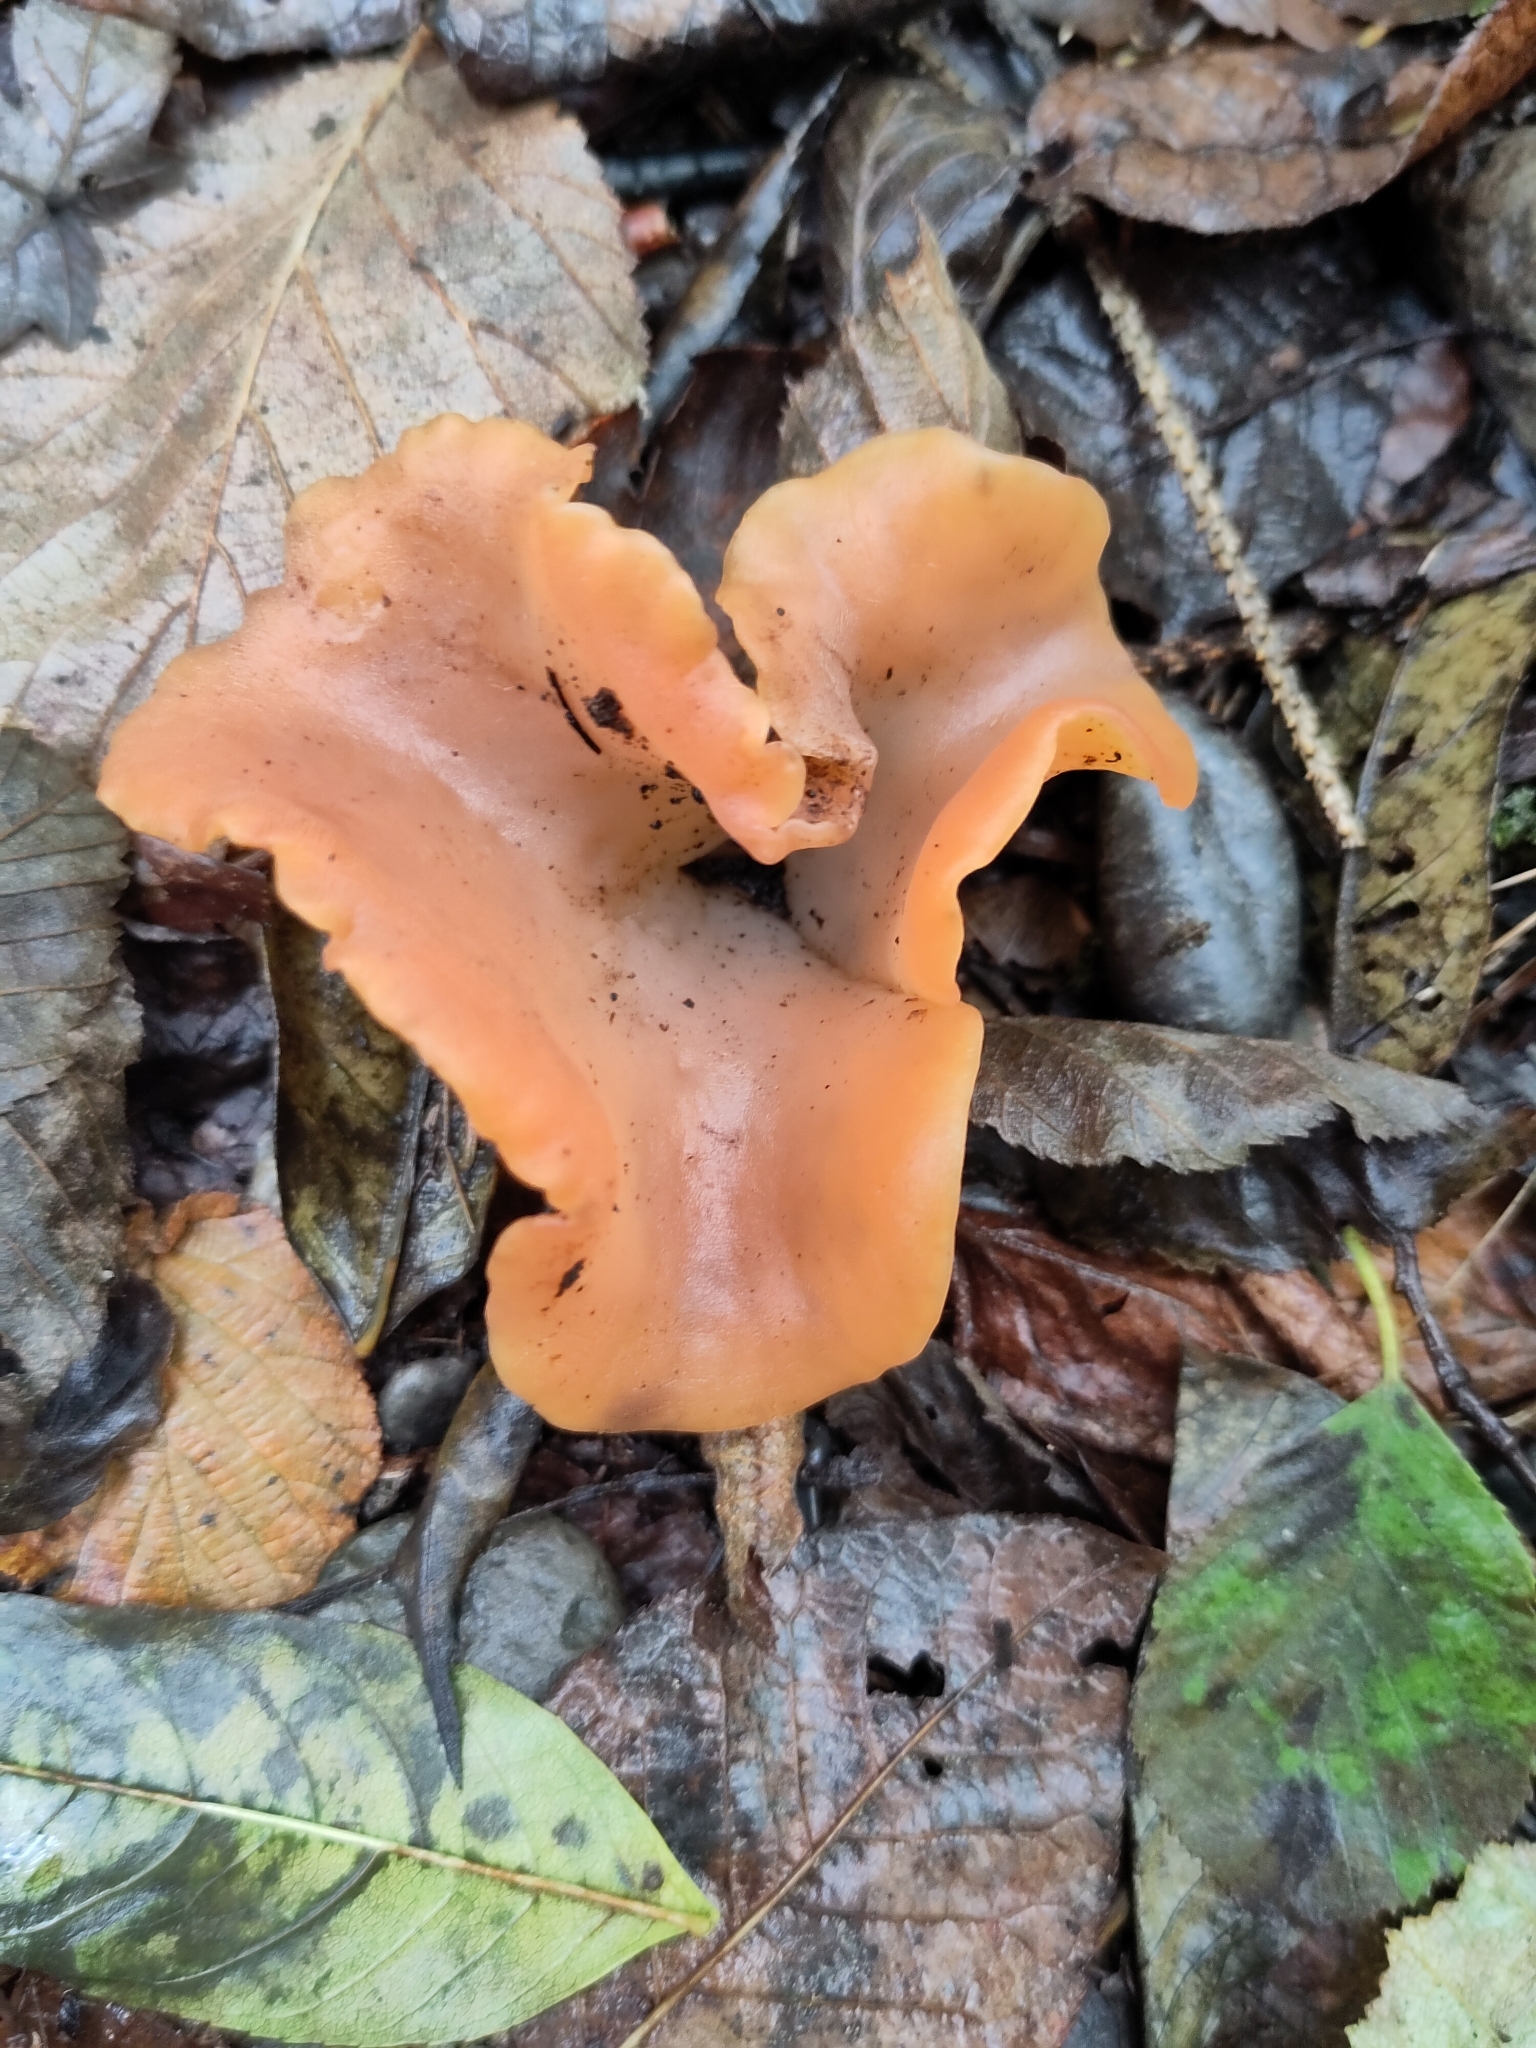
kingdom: Fungi
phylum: Basidiomycota
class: Agaricomycetes
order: Auriculariales
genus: Guepinia
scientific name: Guepinia helvelloides
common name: Salmon salad
